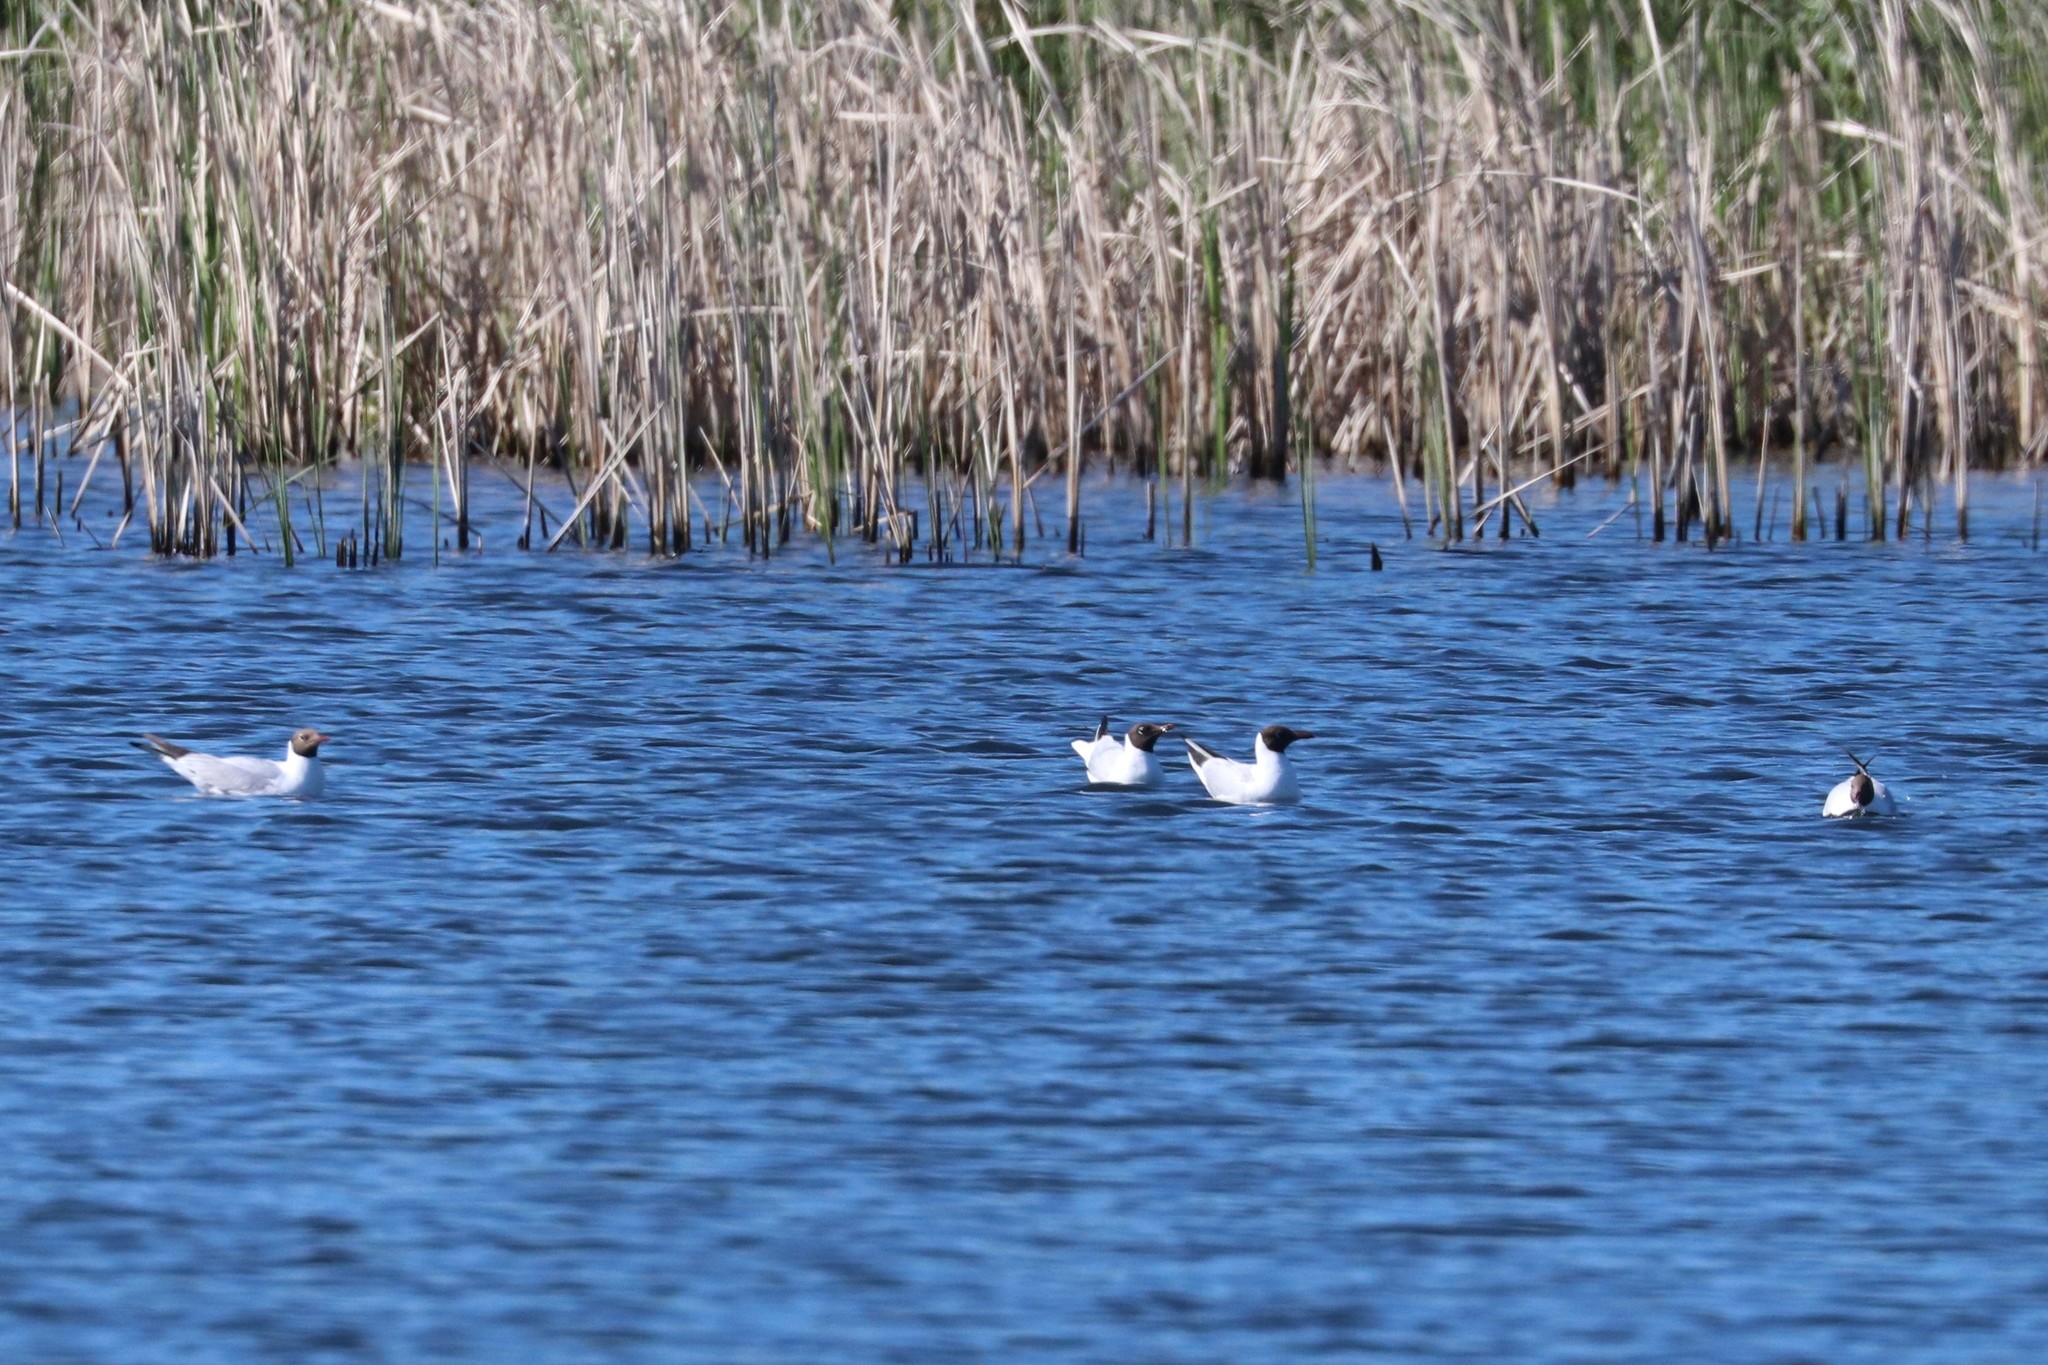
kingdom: Animalia
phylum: Chordata
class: Aves
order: Charadriiformes
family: Laridae
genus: Chroicocephalus
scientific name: Chroicocephalus ridibundus
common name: Black-headed gull
